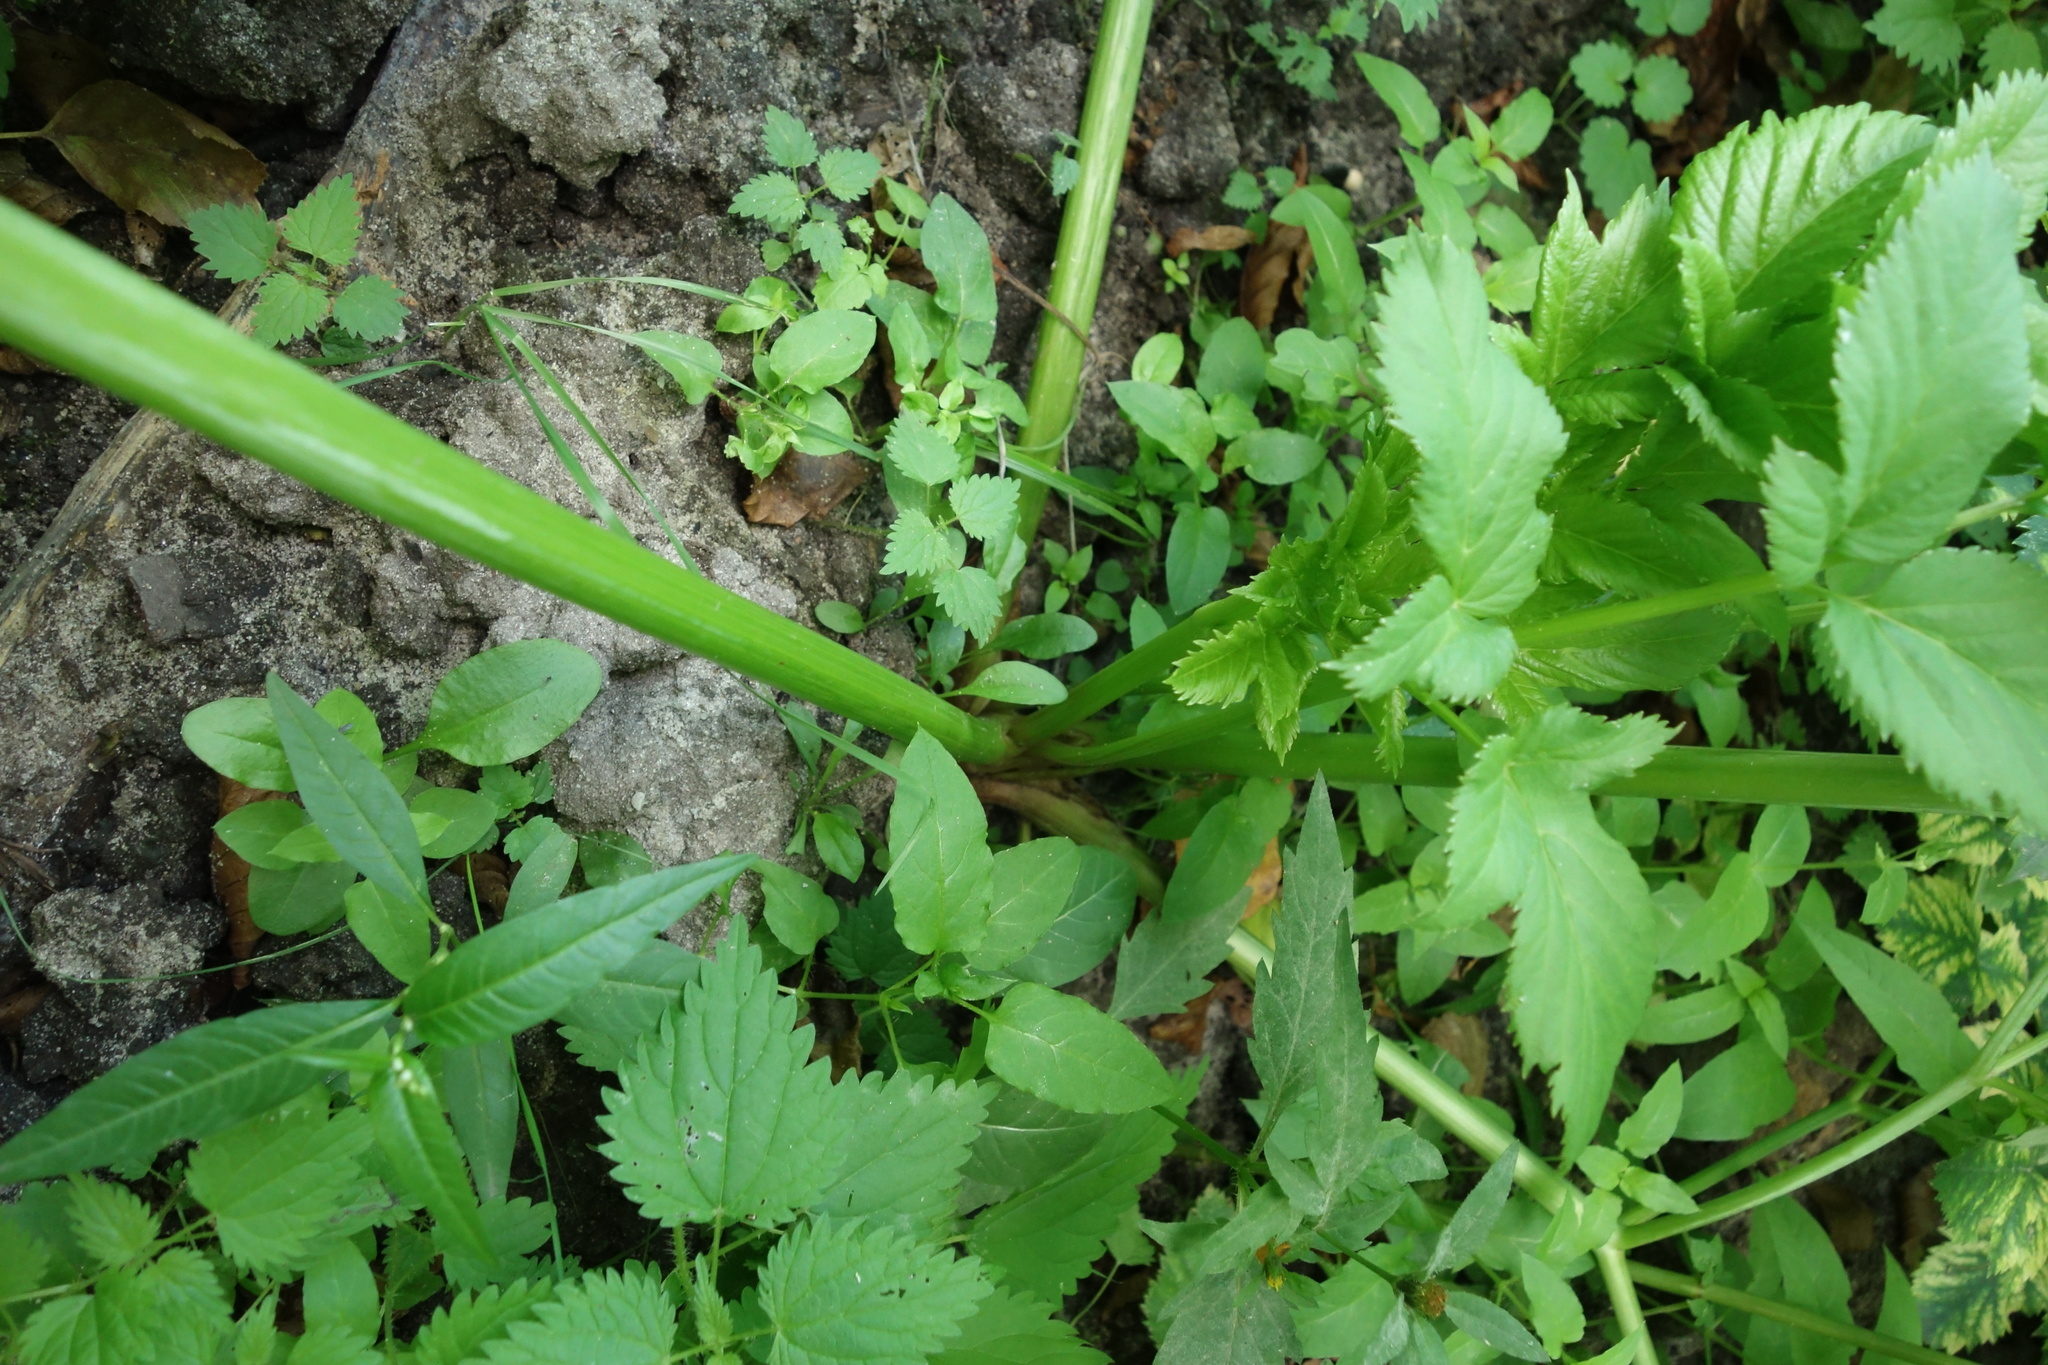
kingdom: Plantae
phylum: Tracheophyta
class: Magnoliopsida
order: Apiales
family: Apiaceae
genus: Angelica
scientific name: Angelica archangelica
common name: Garden angelica
